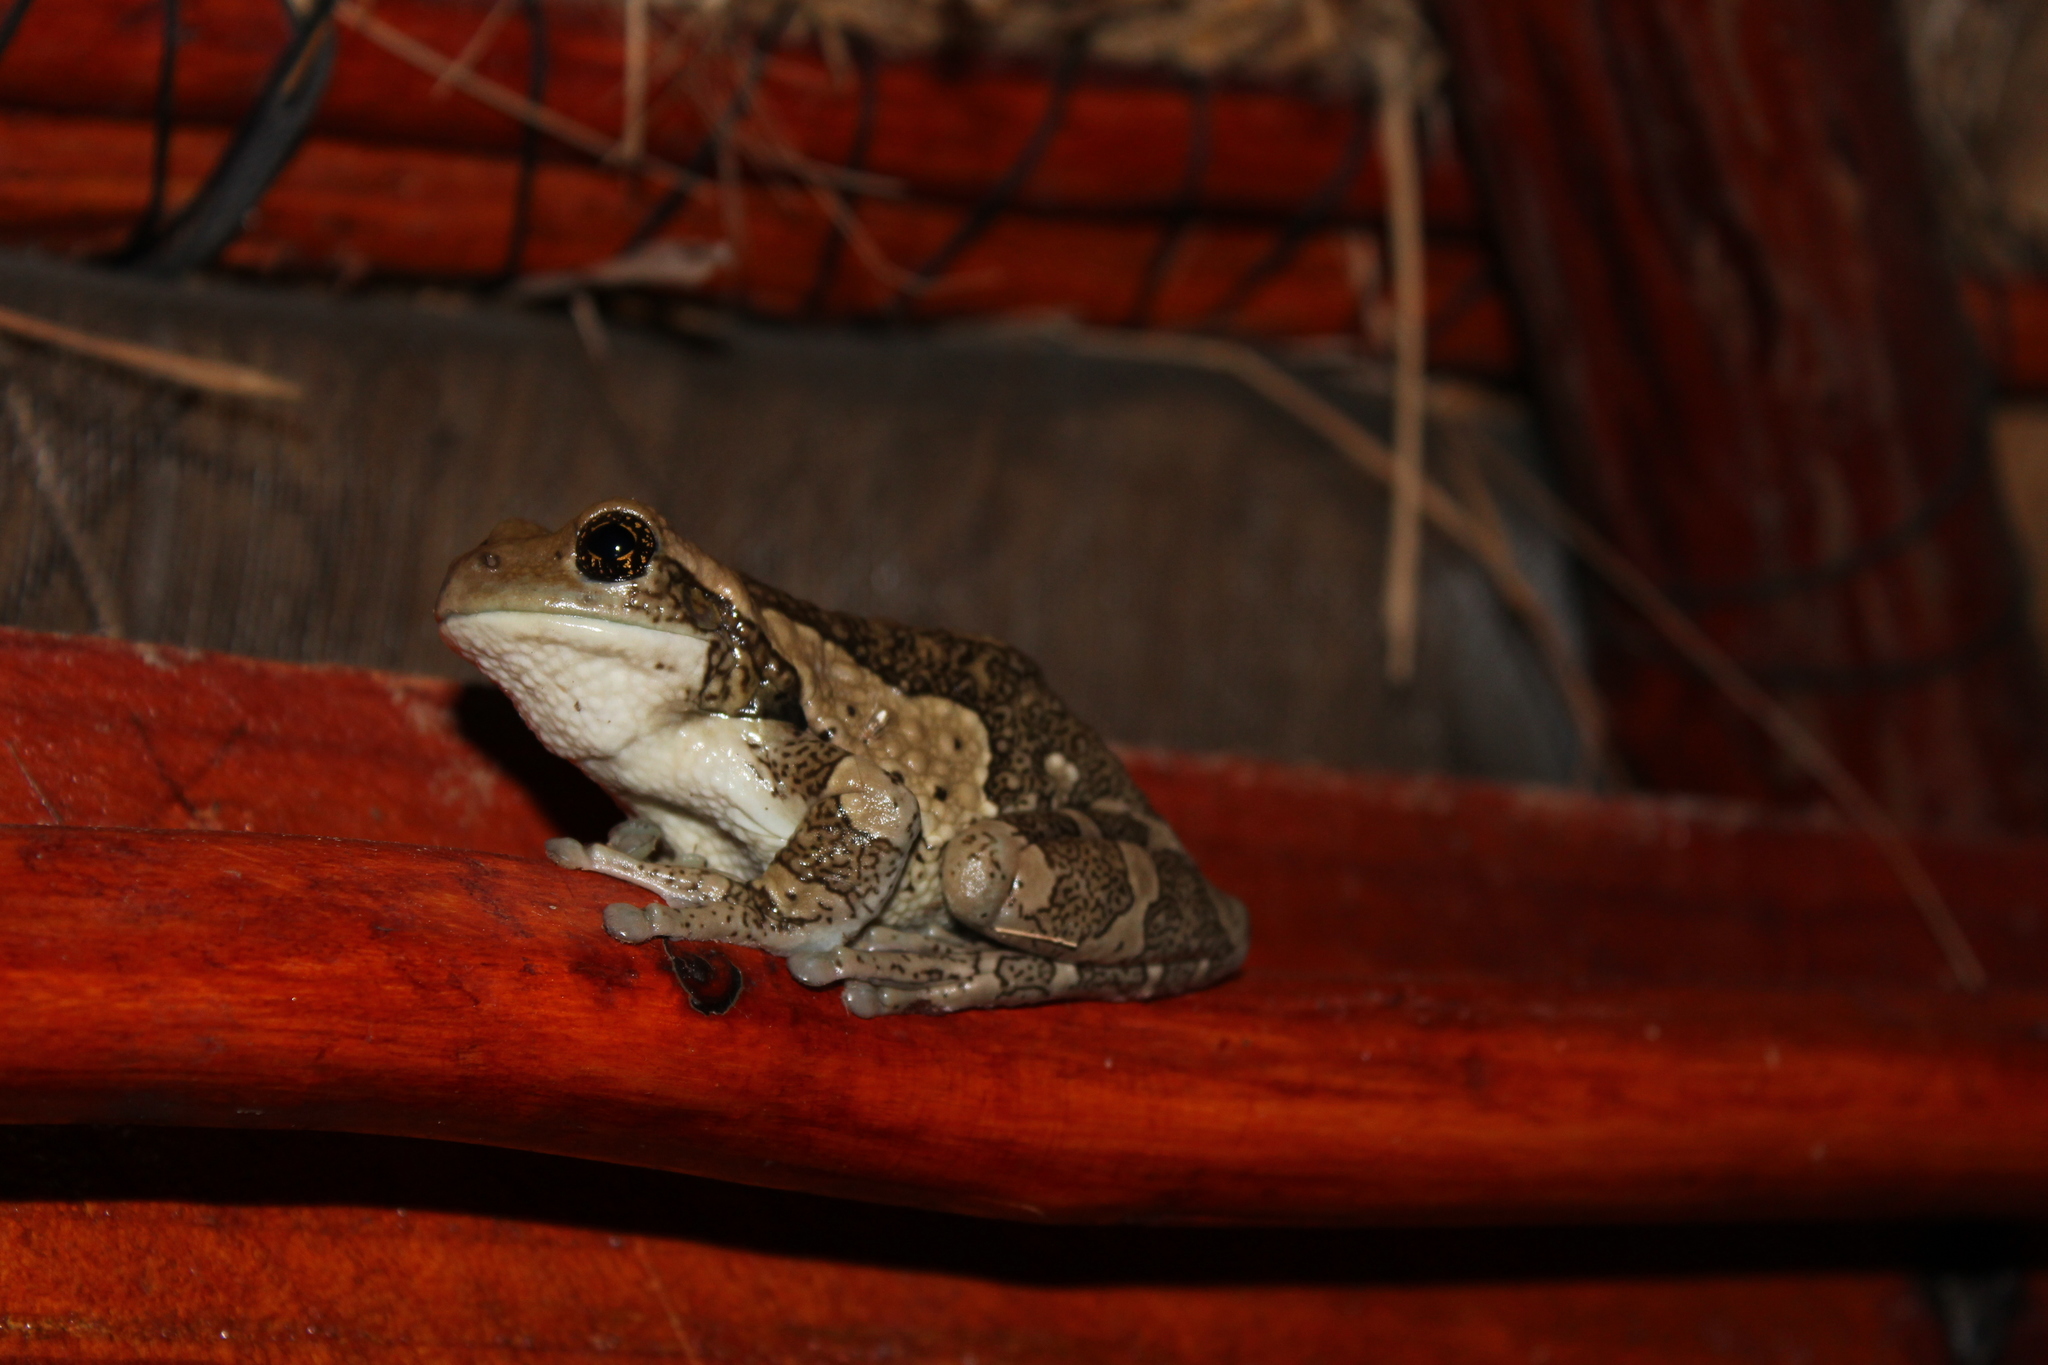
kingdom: Animalia
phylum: Chordata
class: Amphibia
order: Anura
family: Hylidae
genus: Trachycephalus
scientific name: Trachycephalus vermiculatus
